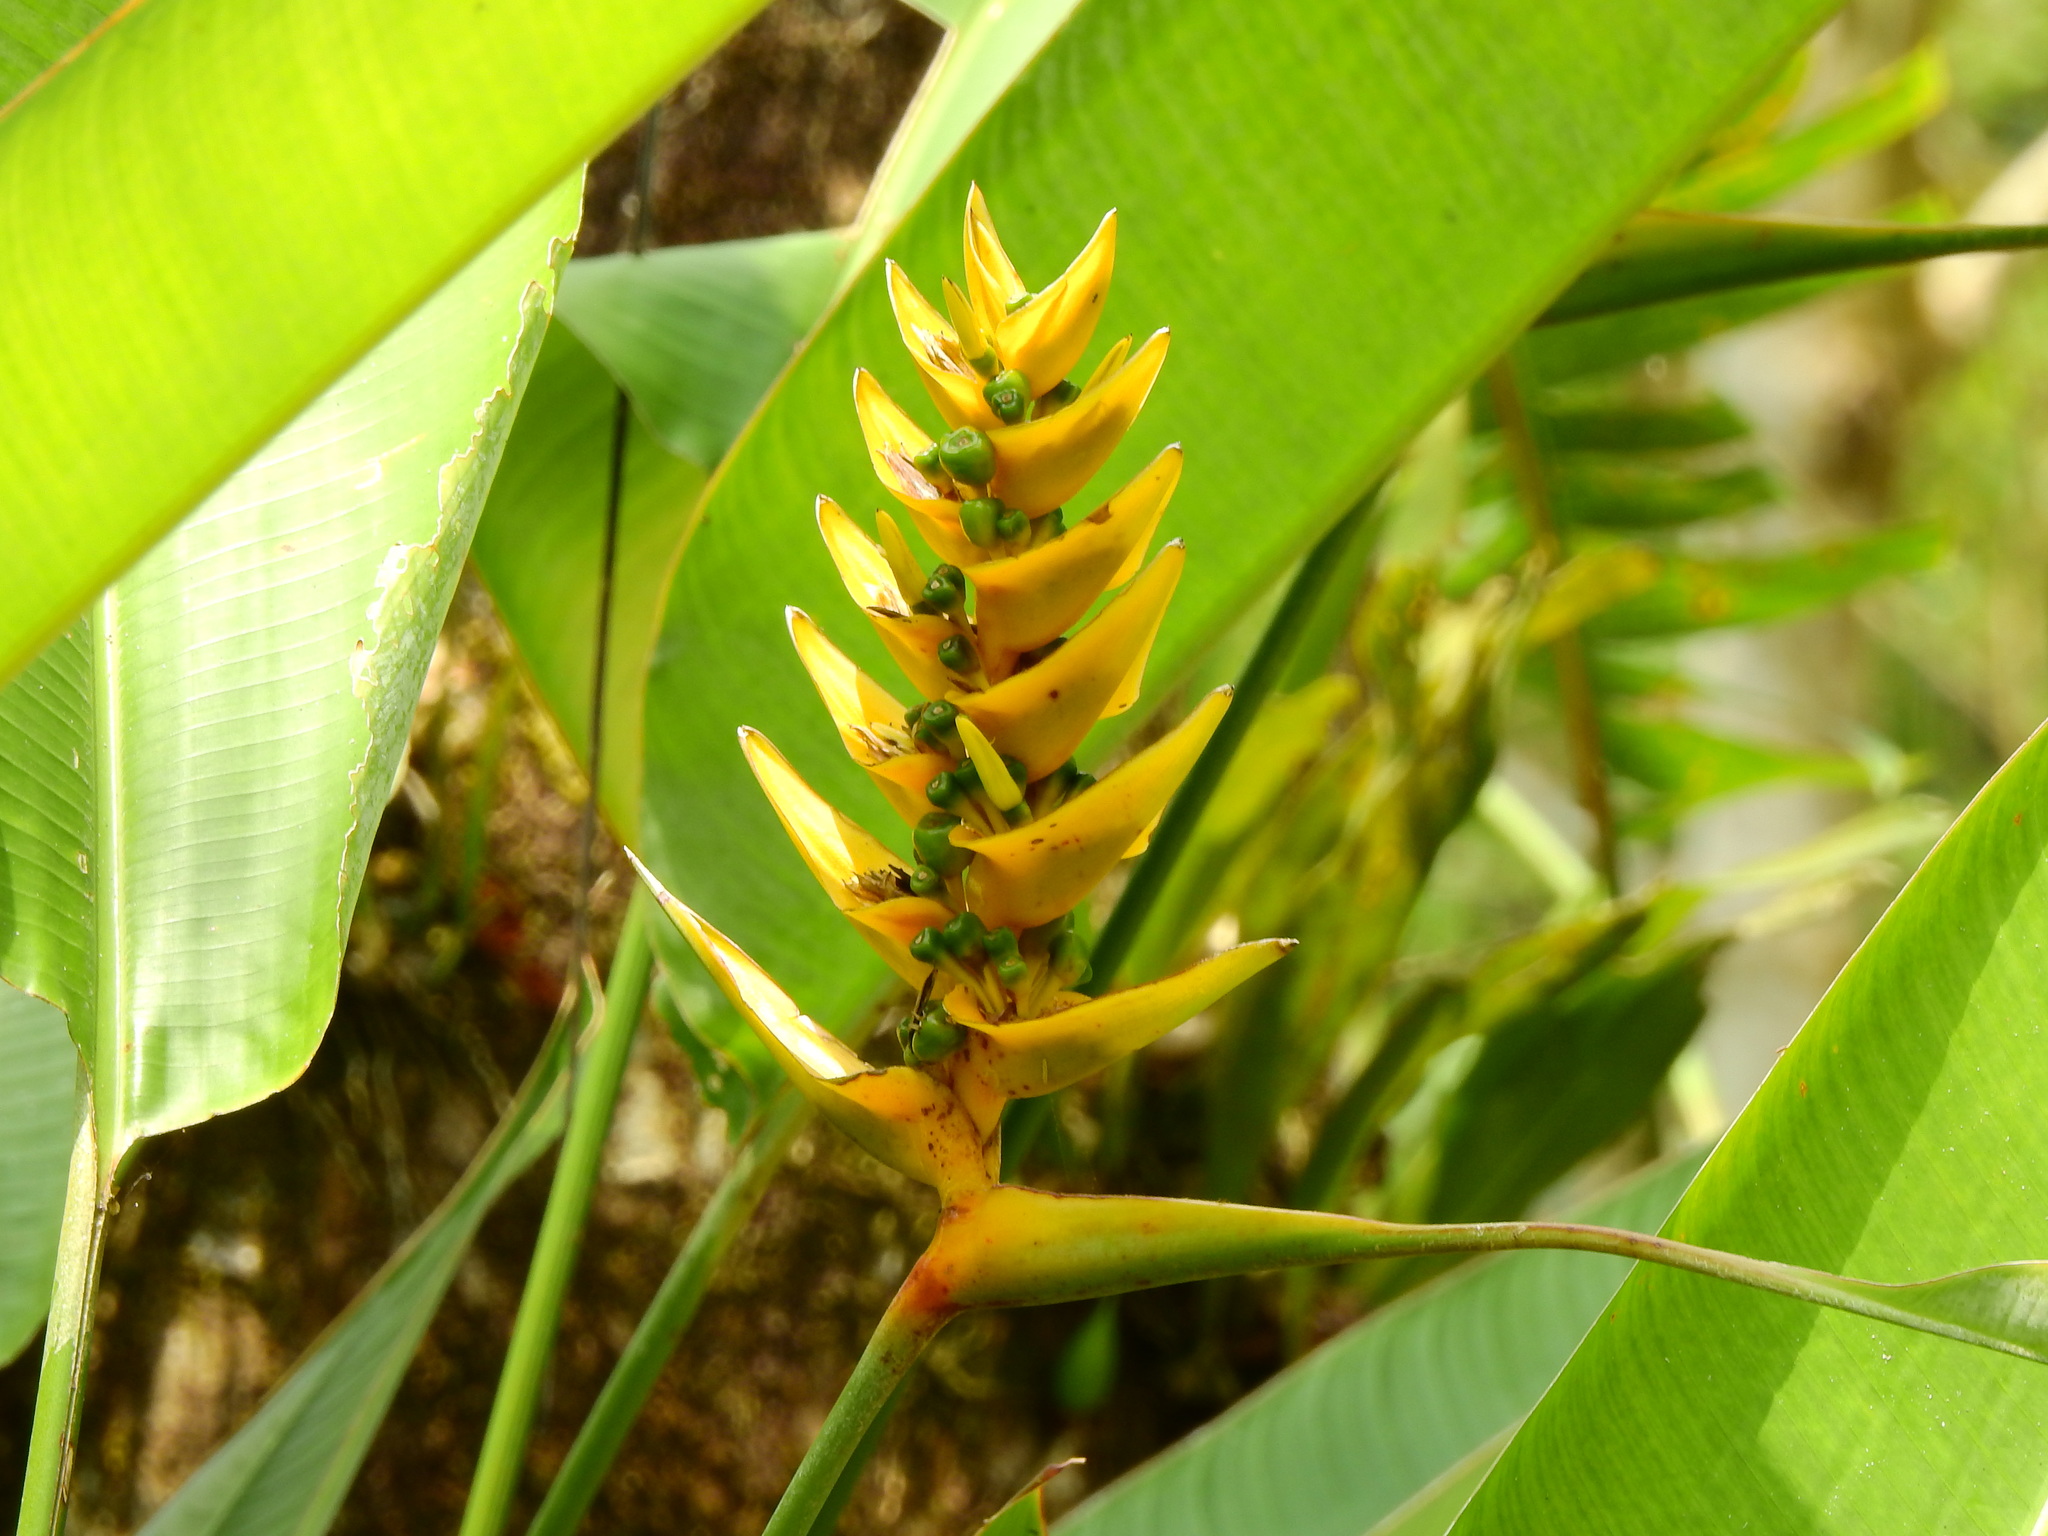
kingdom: Plantae
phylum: Tracheophyta
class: Liliopsida
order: Zingiberales
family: Heliconiaceae
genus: Heliconia
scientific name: Heliconia librata
